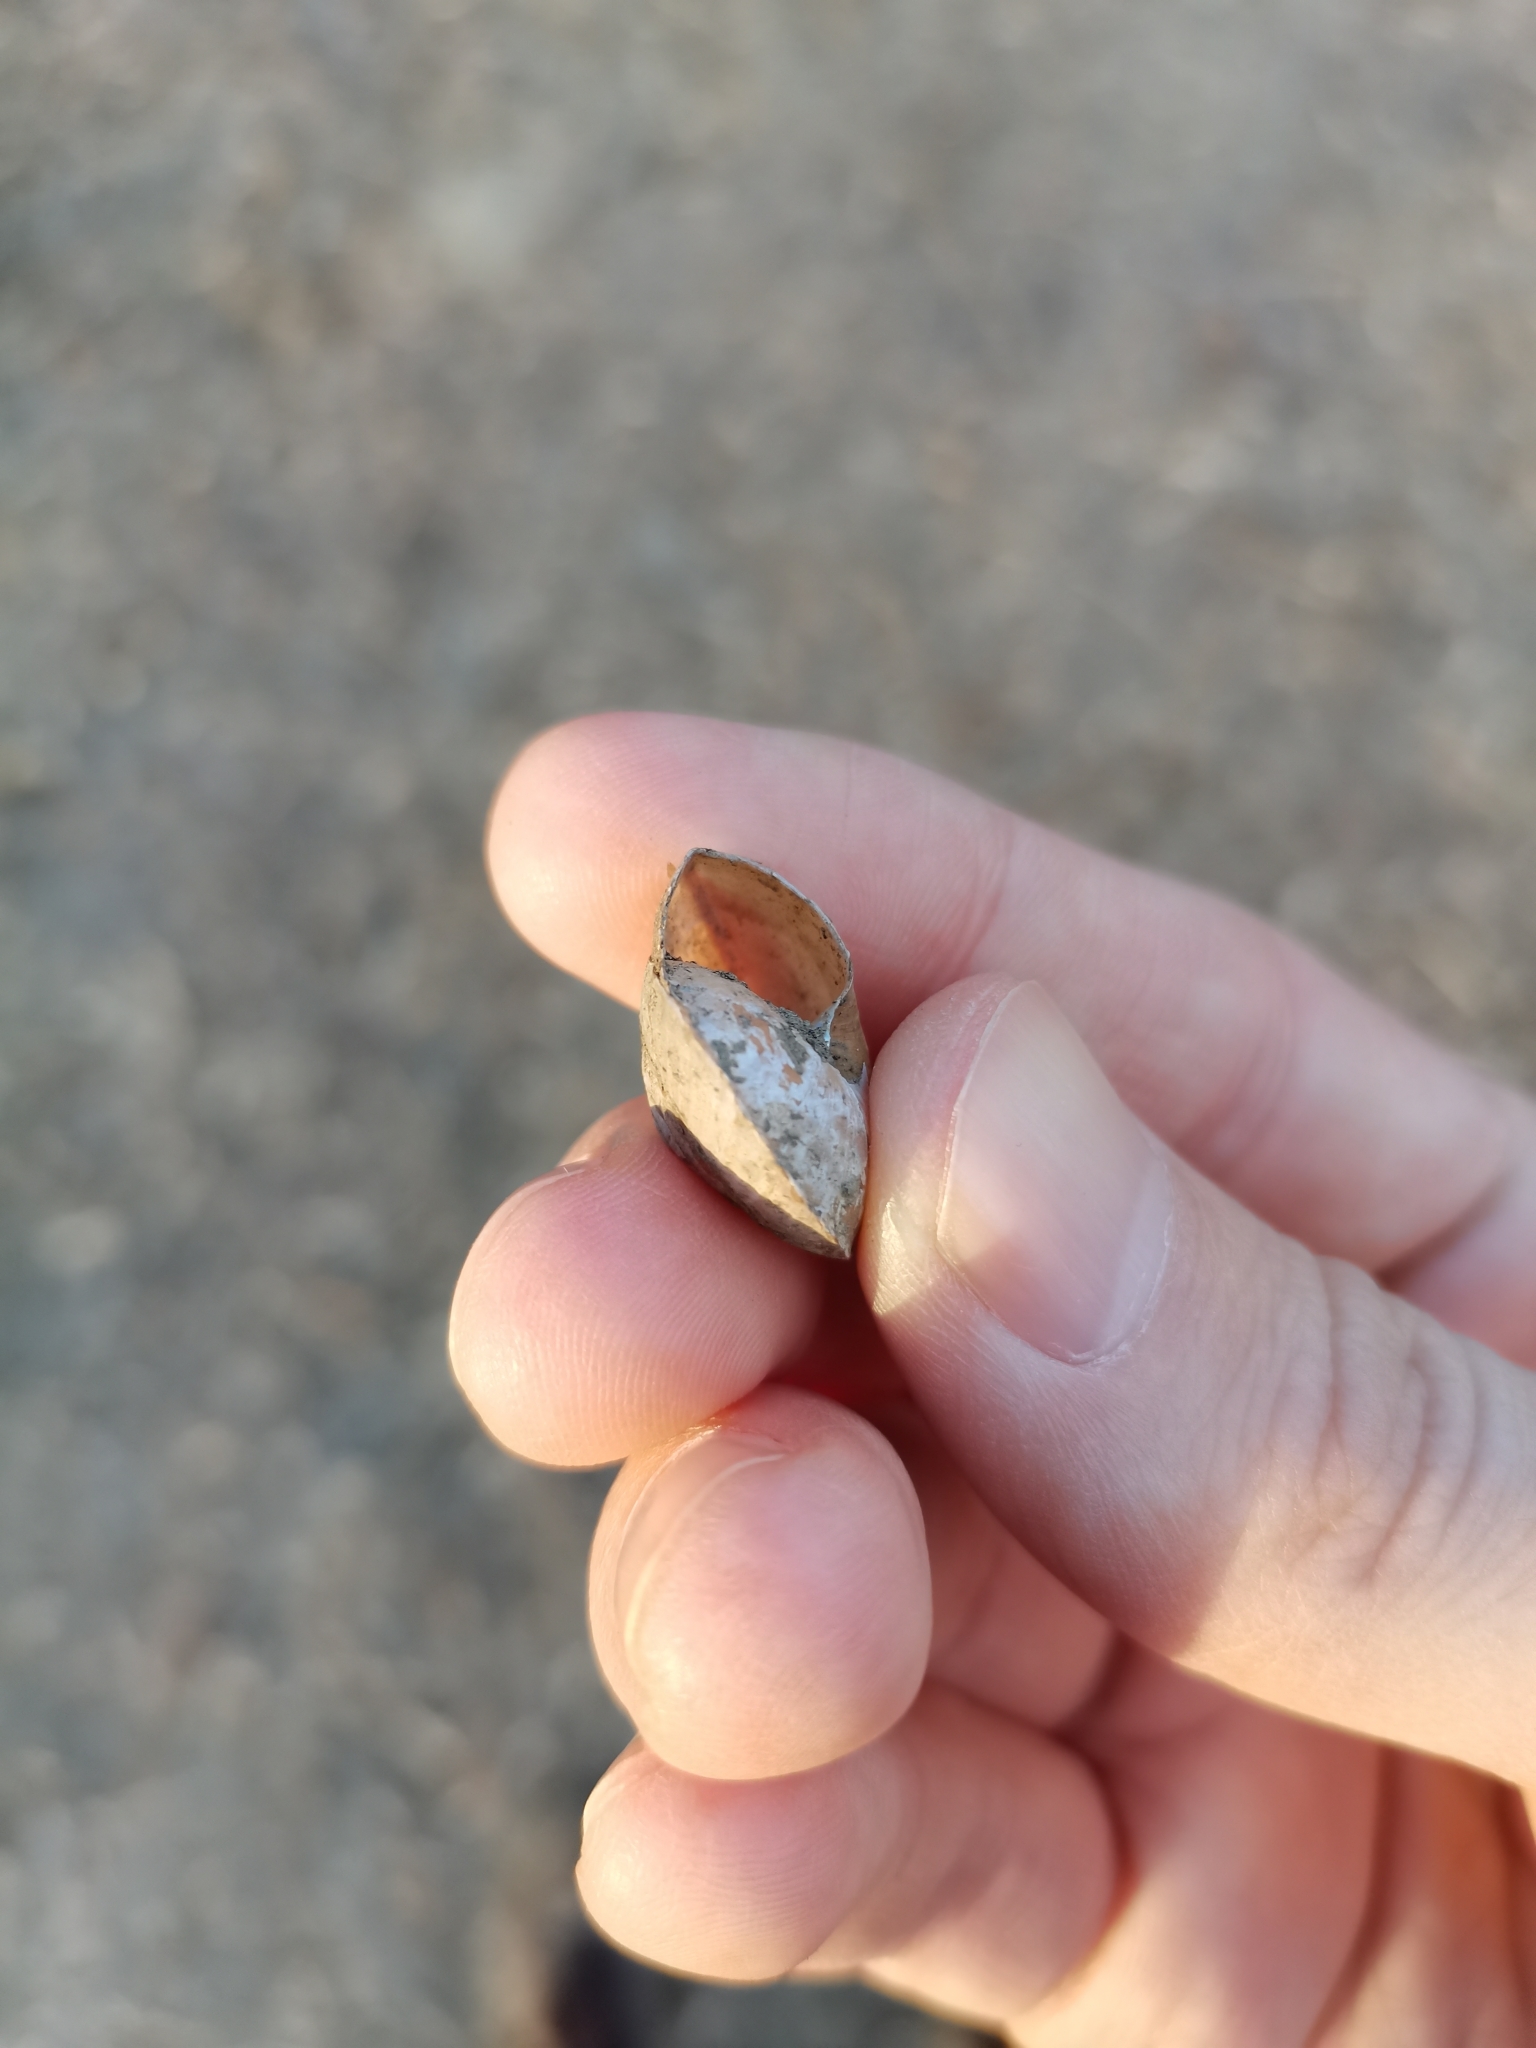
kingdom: Animalia
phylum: Mollusca
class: Gastropoda
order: Stylommatophora
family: Helicidae
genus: Drobacia
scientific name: Drobacia banatica
